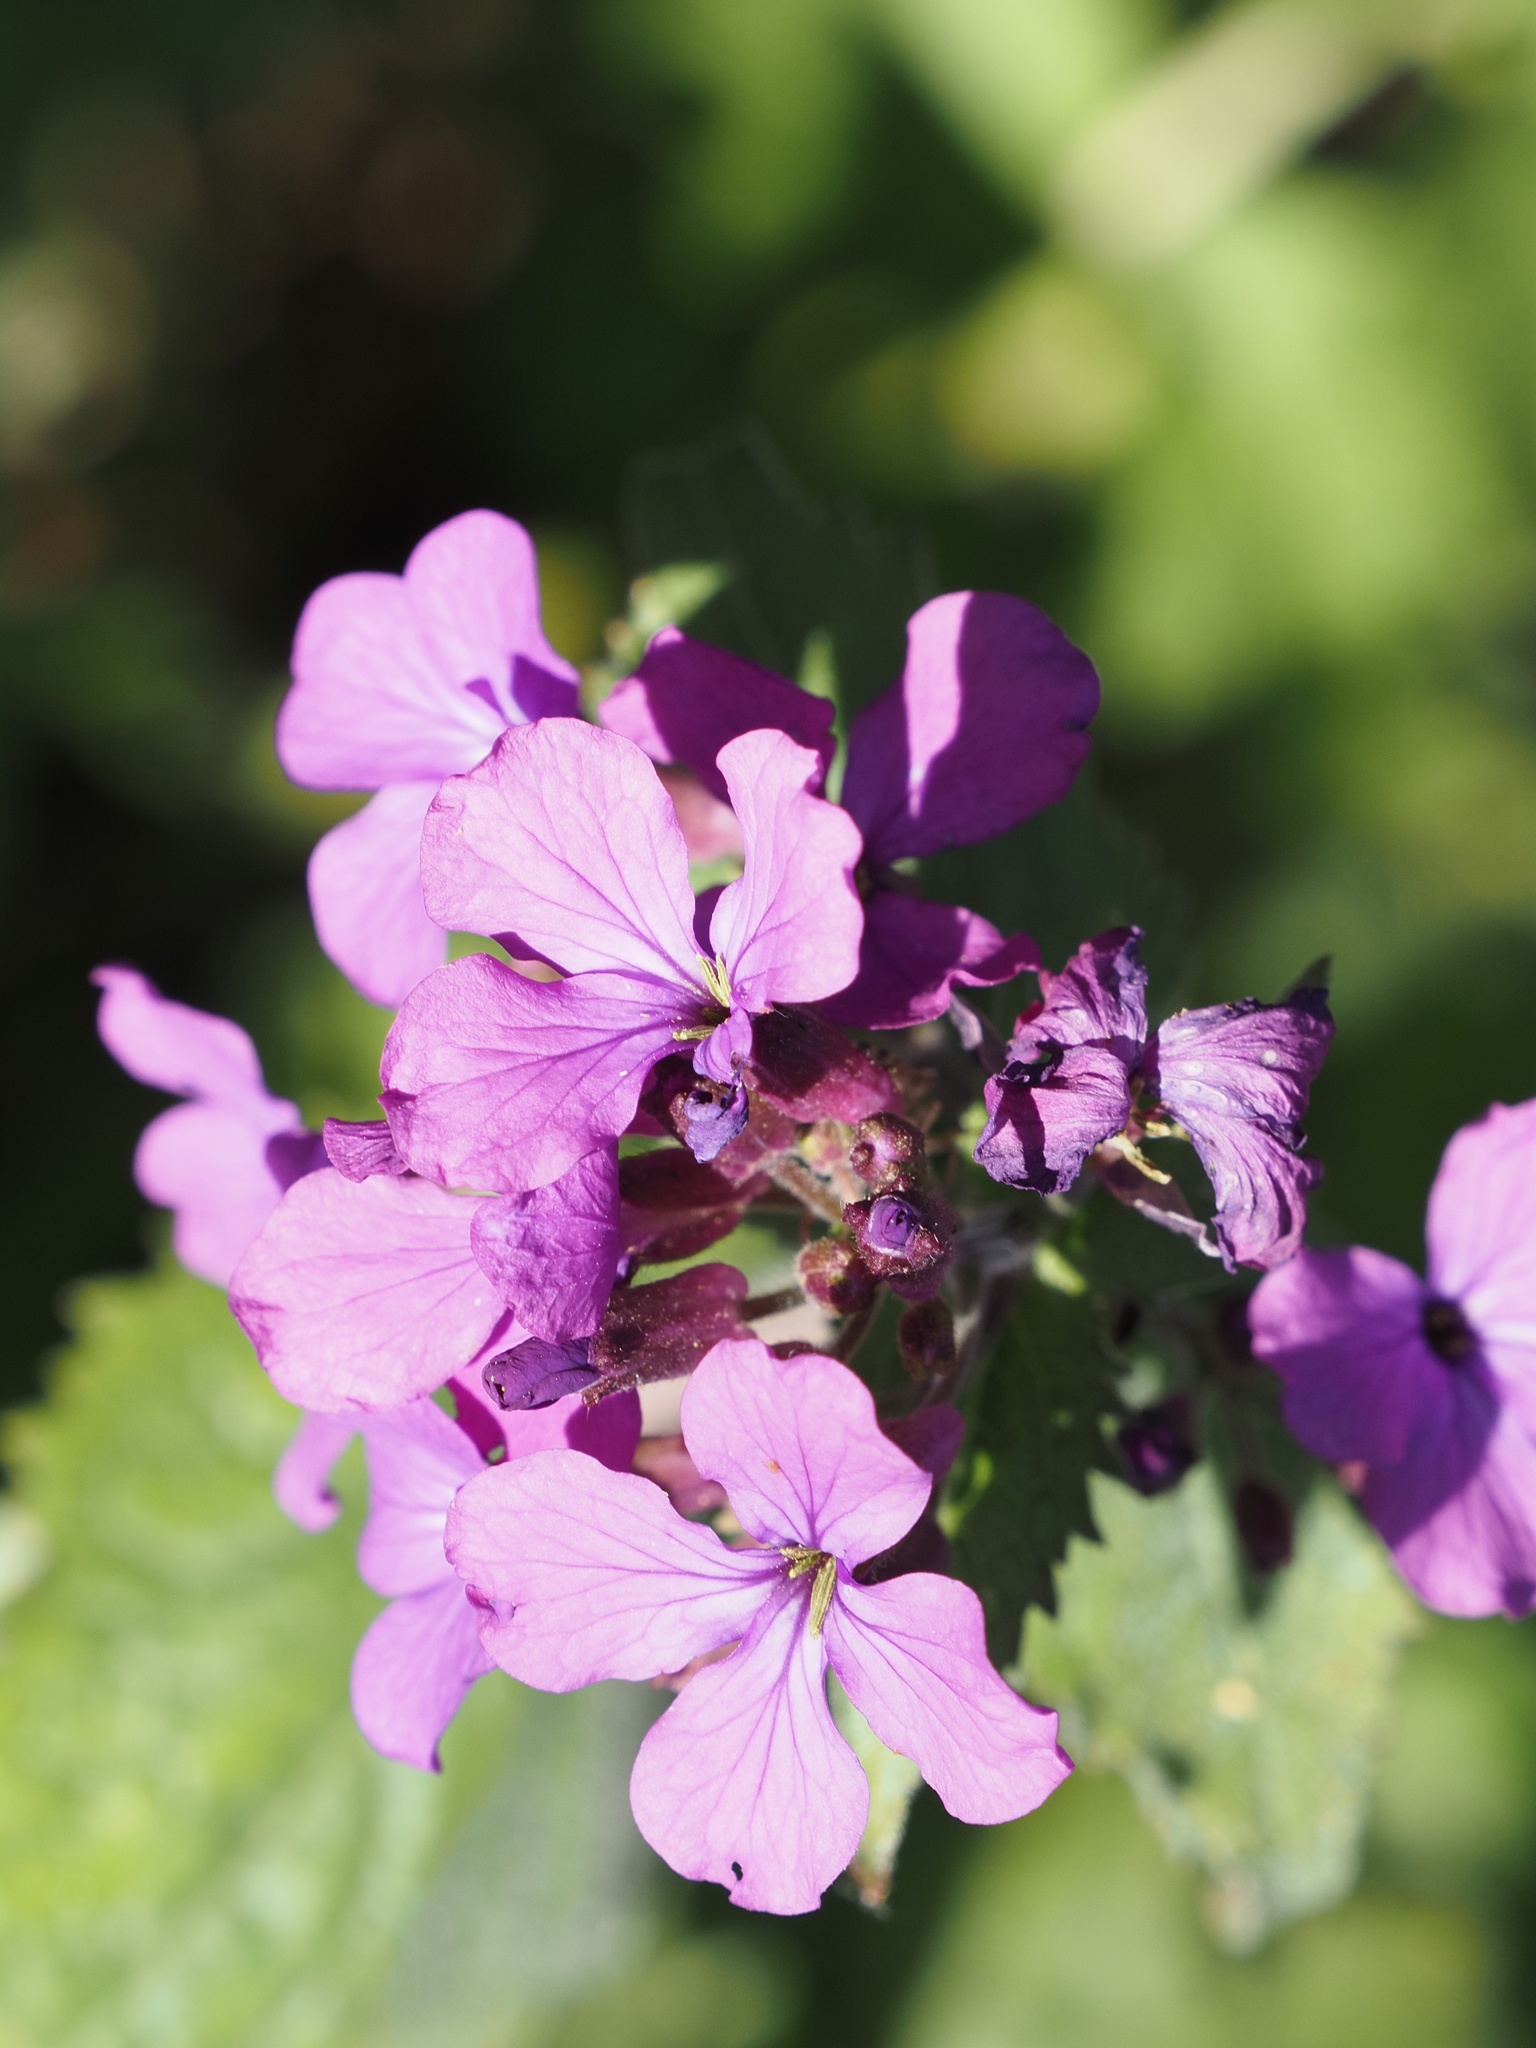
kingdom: Plantae
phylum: Tracheophyta
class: Magnoliopsida
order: Brassicales
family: Brassicaceae
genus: Lunaria
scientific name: Lunaria annua
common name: Honesty
